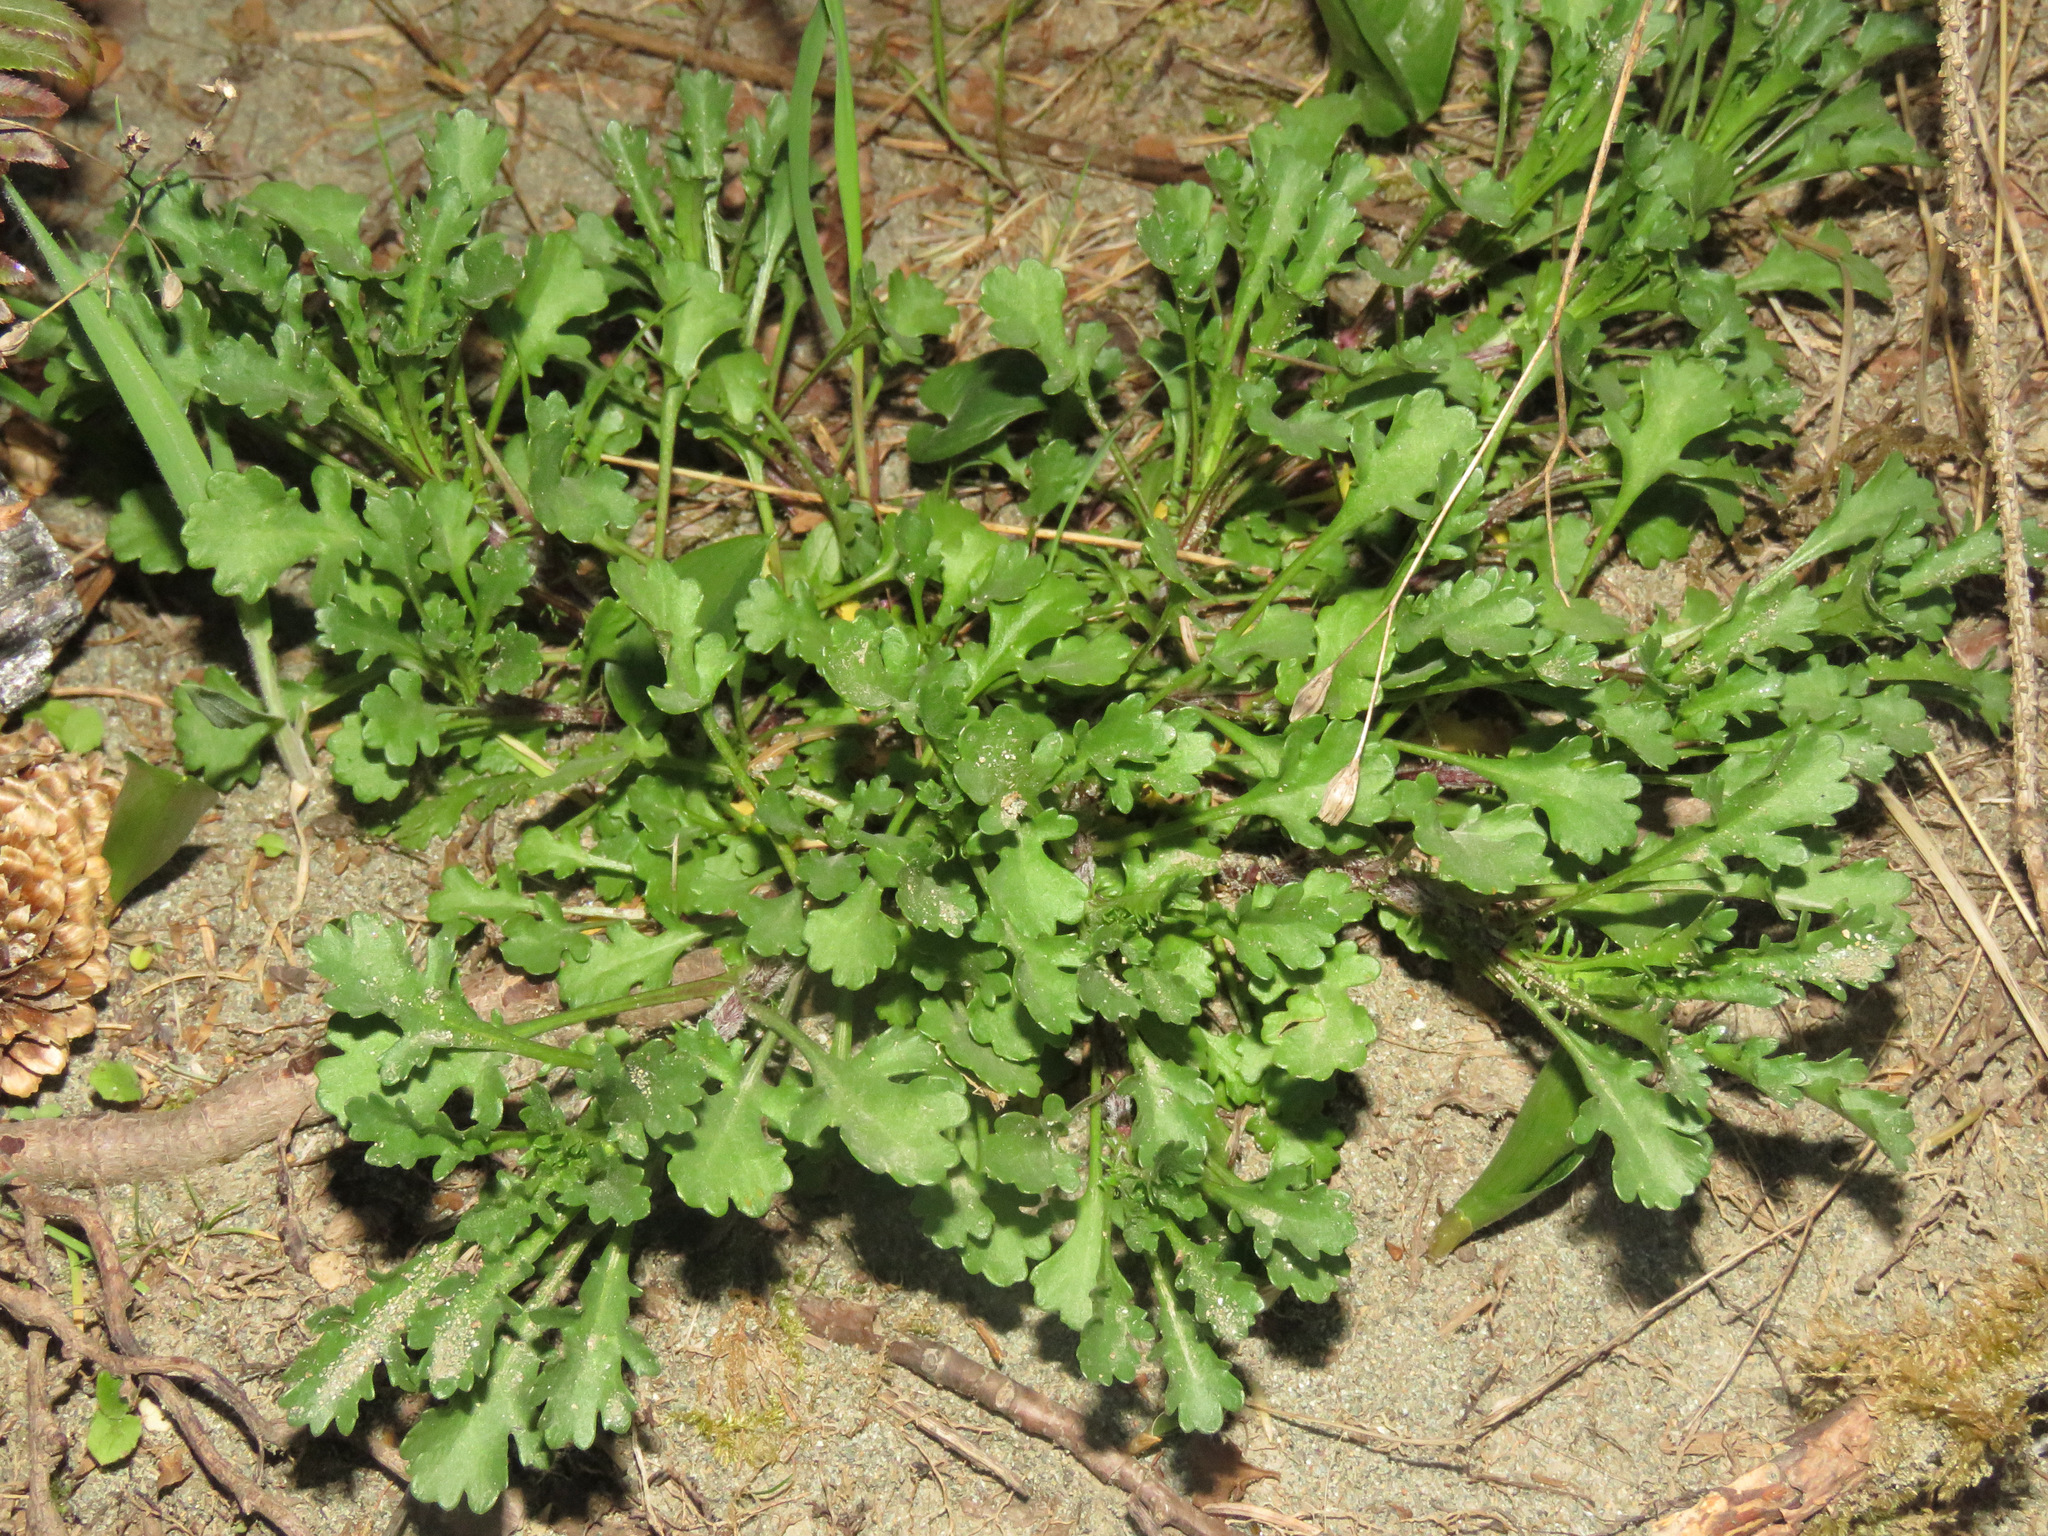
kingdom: Plantae
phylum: Tracheophyta
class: Magnoliopsida
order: Asterales
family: Asteraceae
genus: Leucanthemum
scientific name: Leucanthemum vulgare
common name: Oxeye daisy
